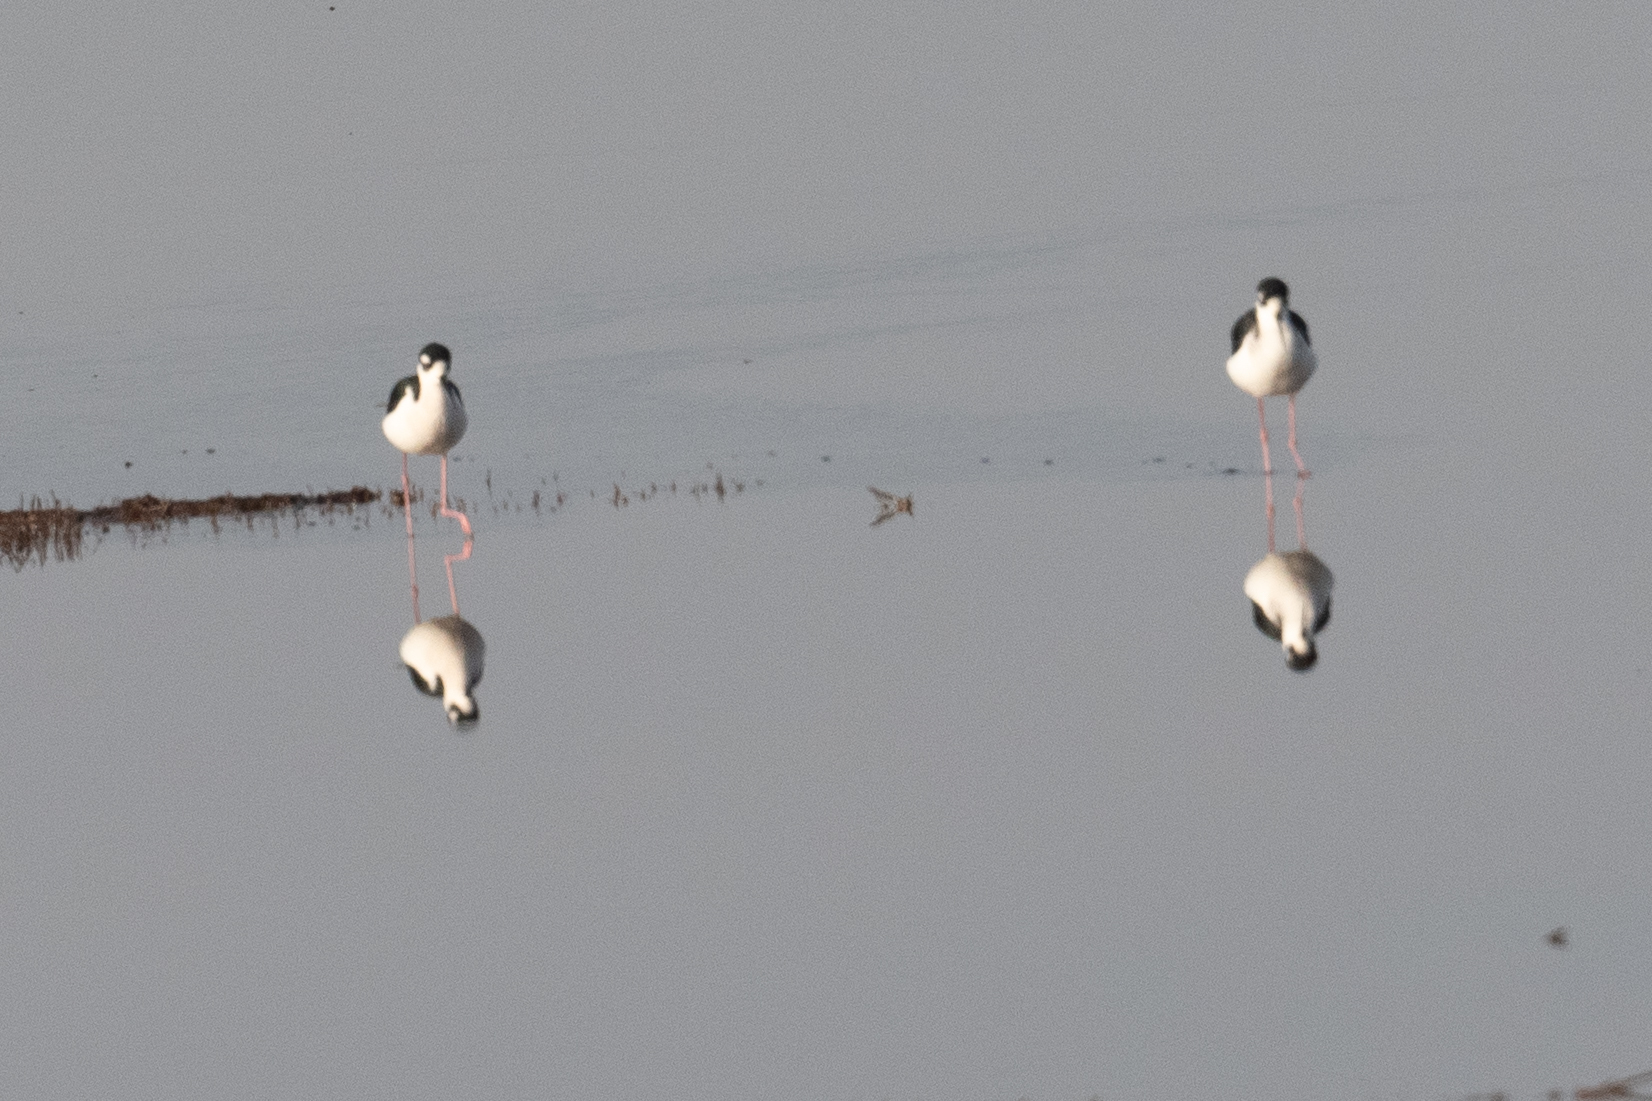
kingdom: Animalia
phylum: Chordata
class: Aves
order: Charadriiformes
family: Recurvirostridae
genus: Himantopus
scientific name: Himantopus mexicanus
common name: Black-necked stilt
